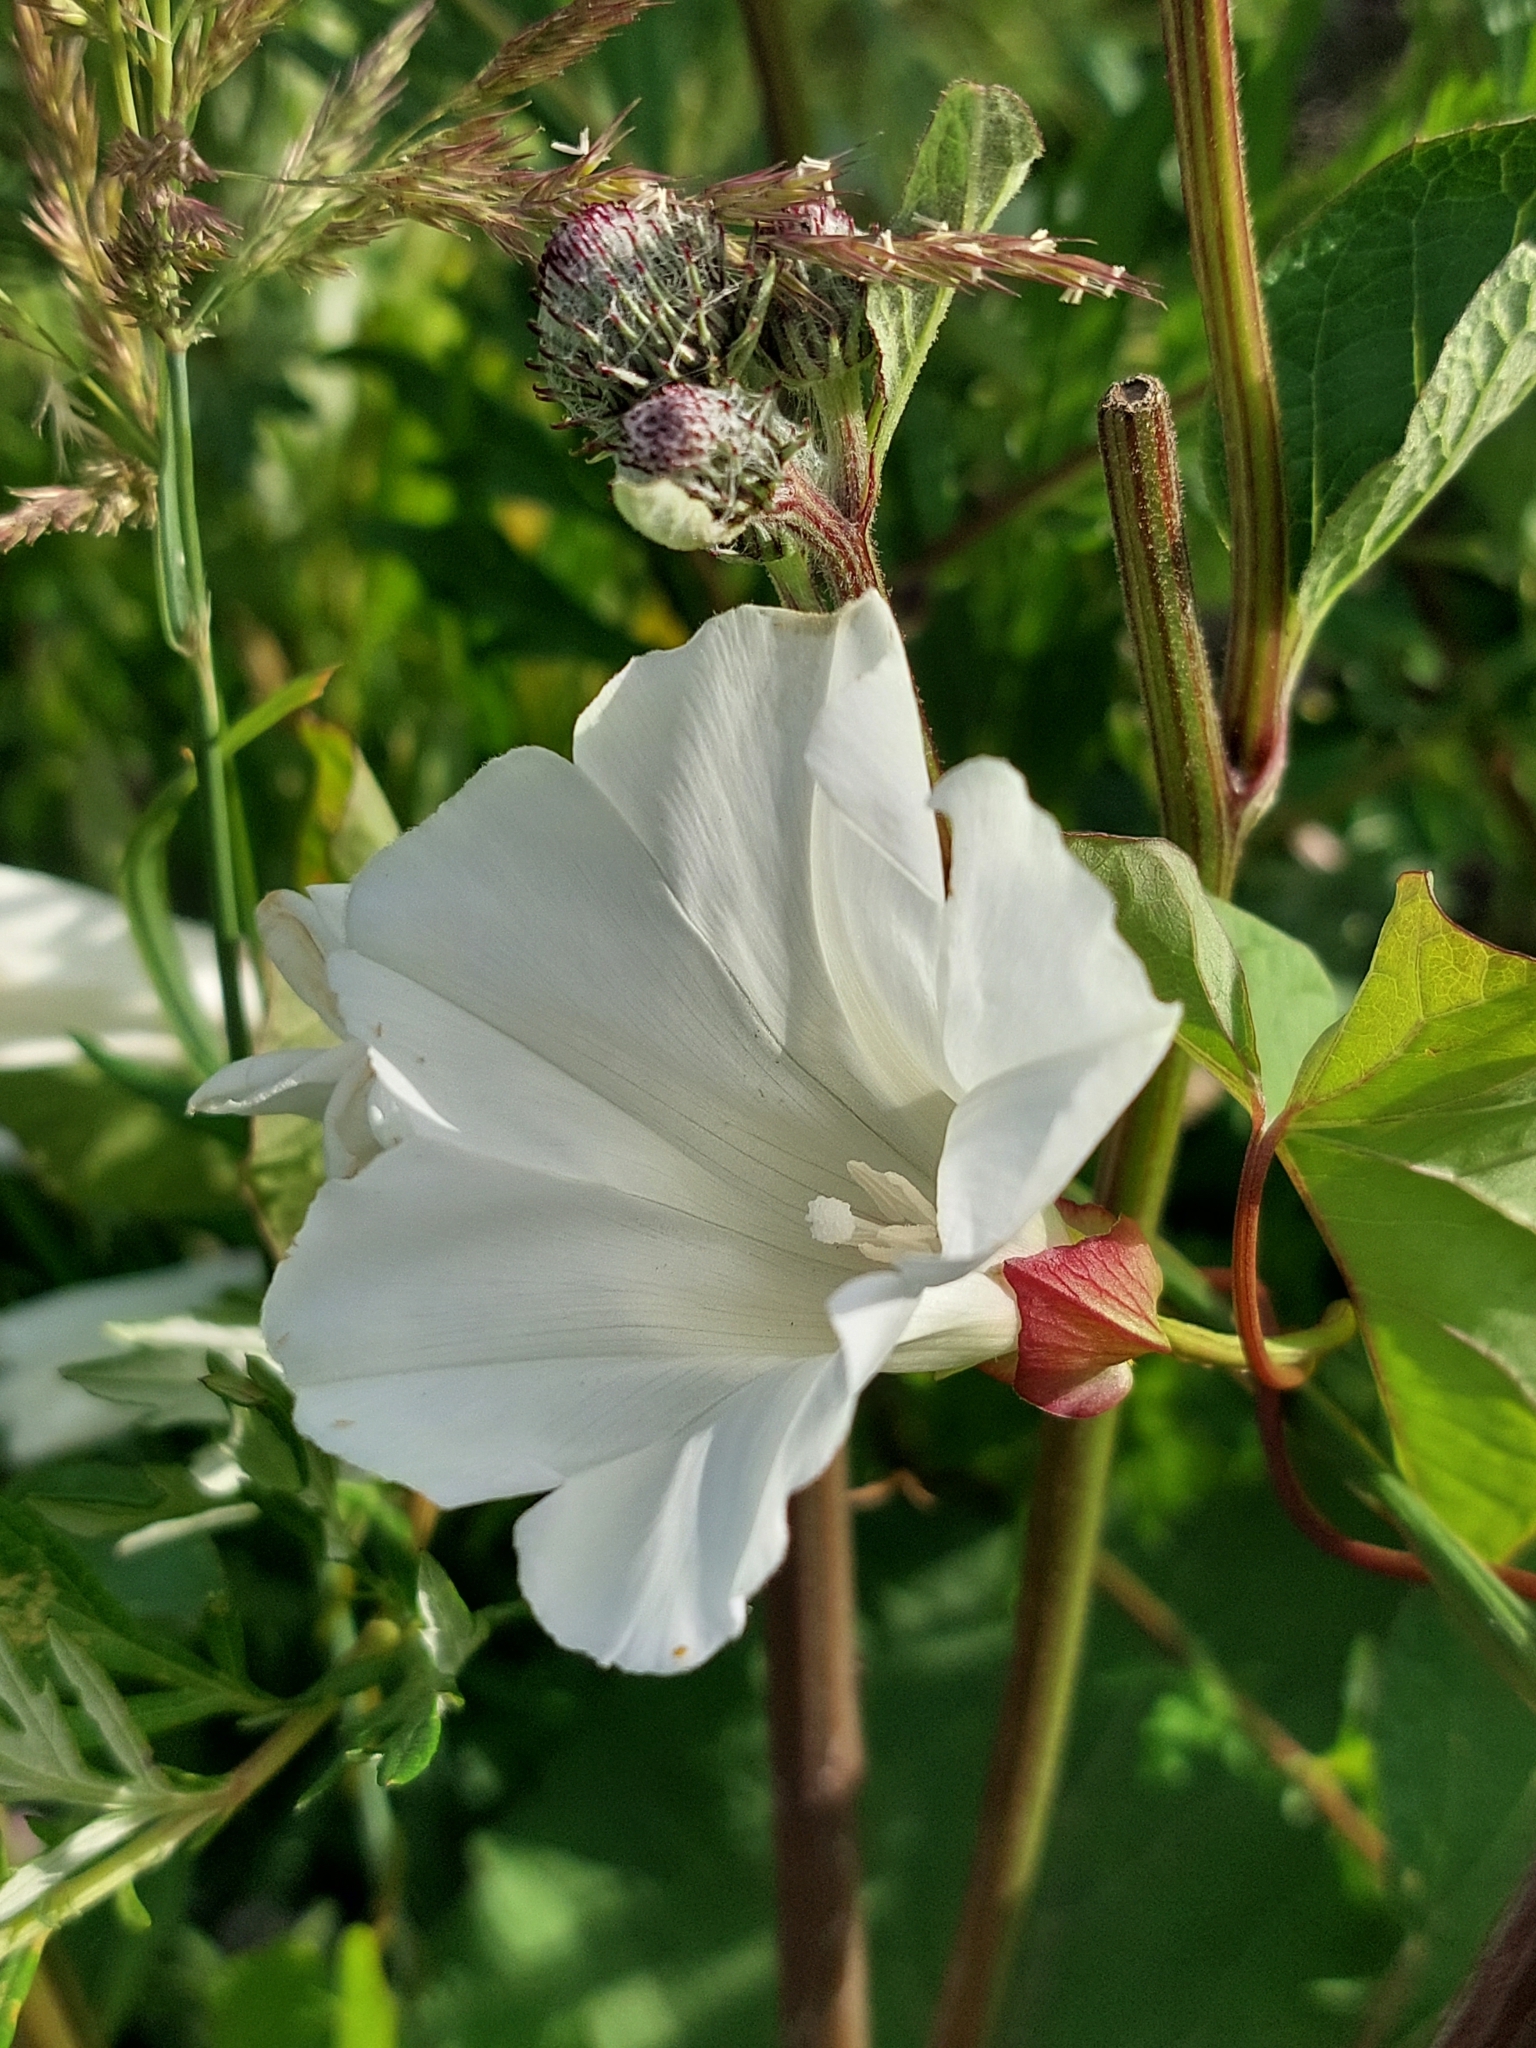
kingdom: Plantae
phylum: Tracheophyta
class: Magnoliopsida
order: Solanales
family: Convolvulaceae
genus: Calystegia
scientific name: Calystegia sepium
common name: Hedge bindweed
